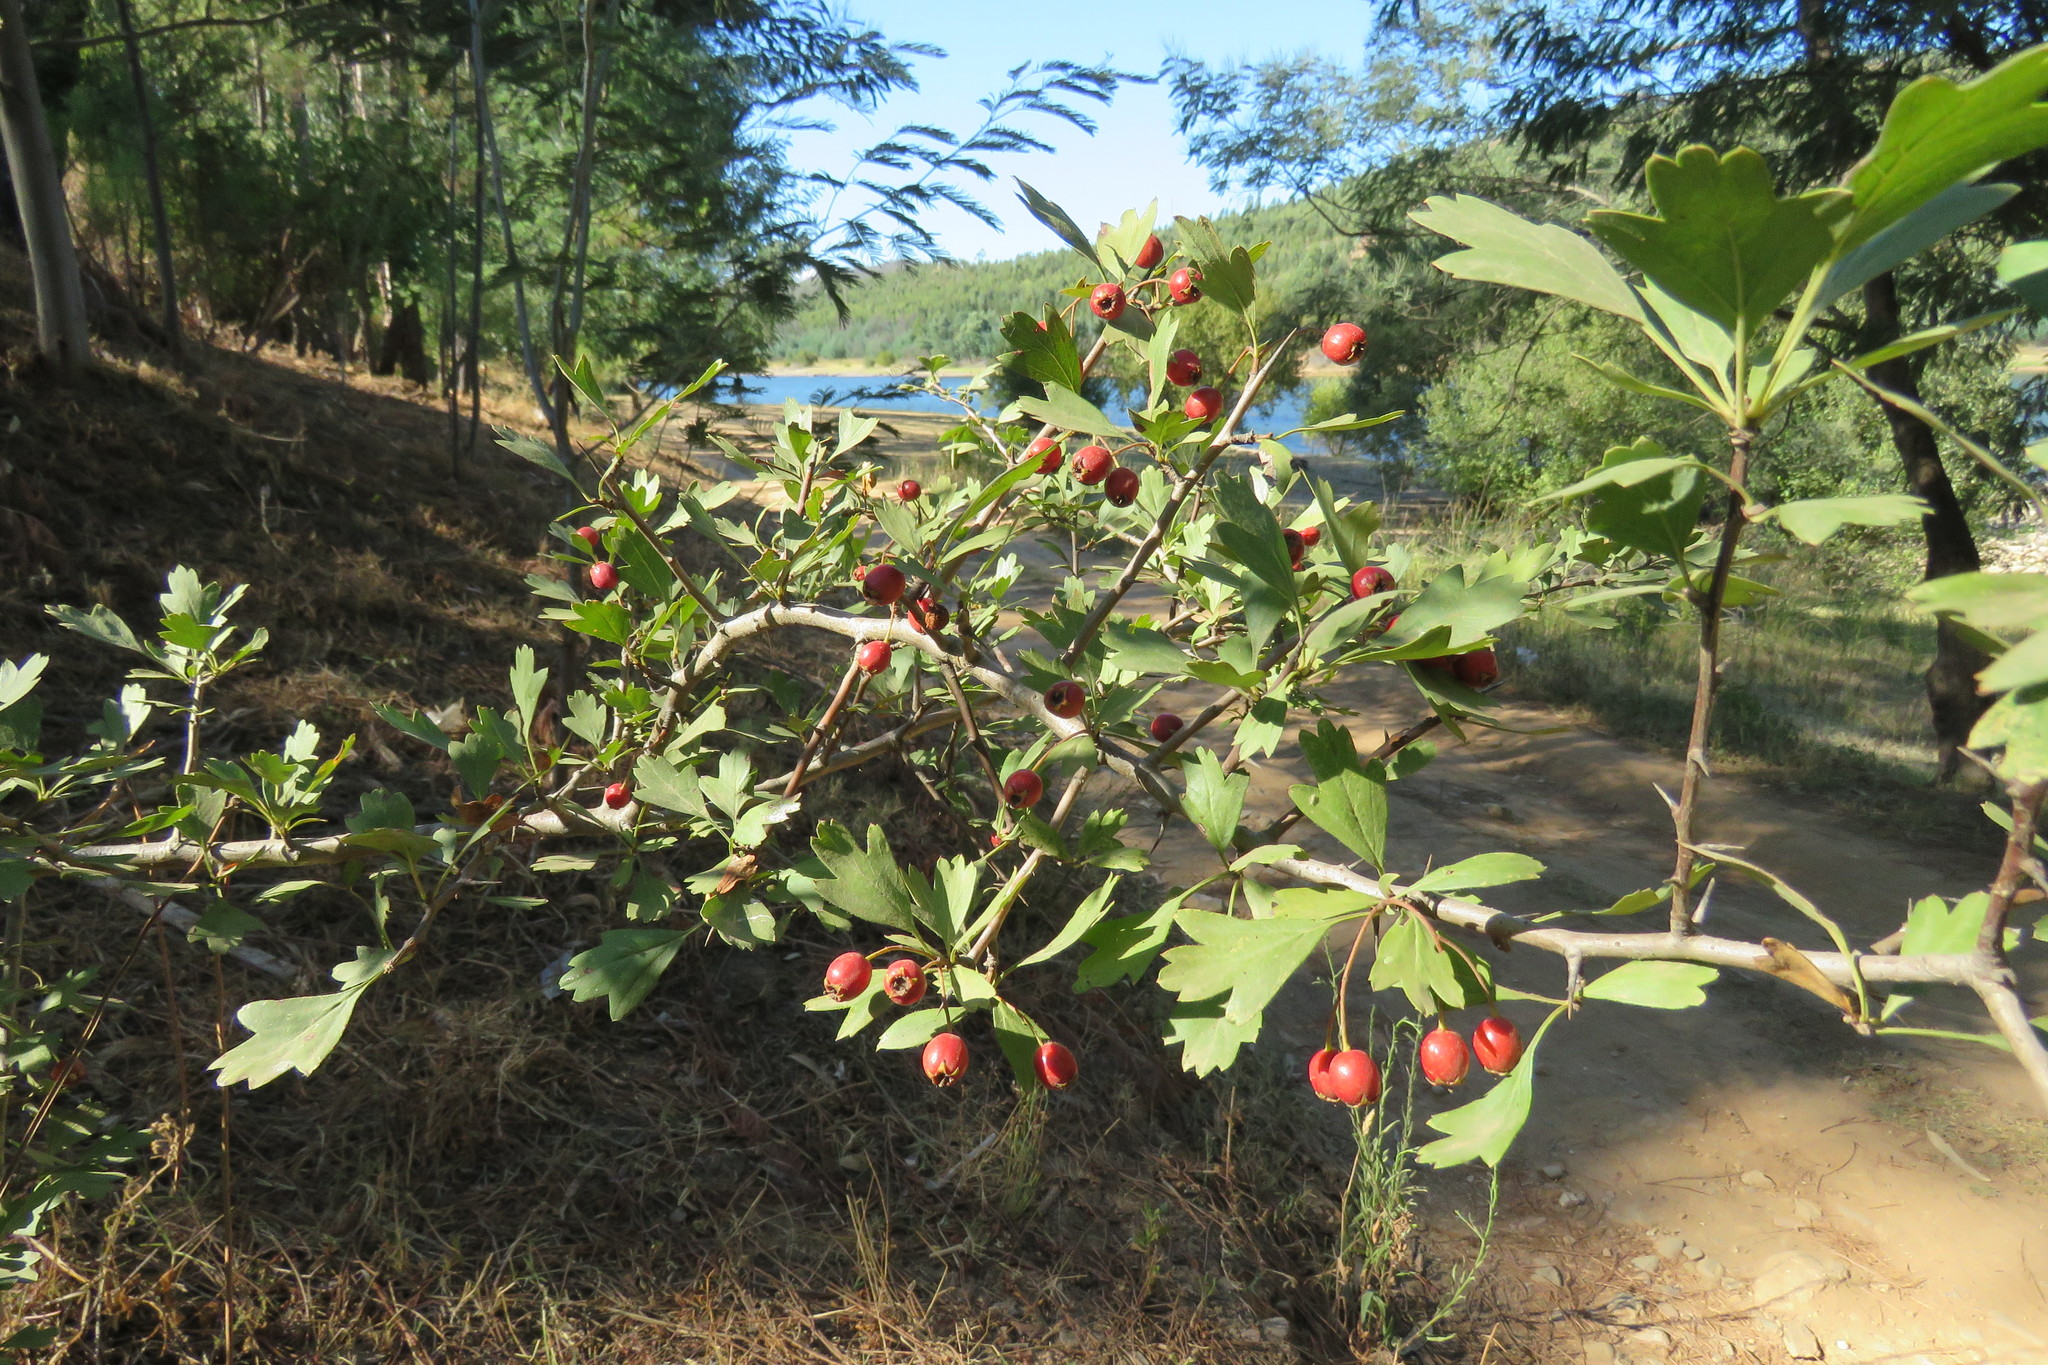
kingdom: Plantae
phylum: Tracheophyta
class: Magnoliopsida
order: Rosales
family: Rosaceae
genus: Crataegus
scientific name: Crataegus monogyna
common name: Hawthorn
